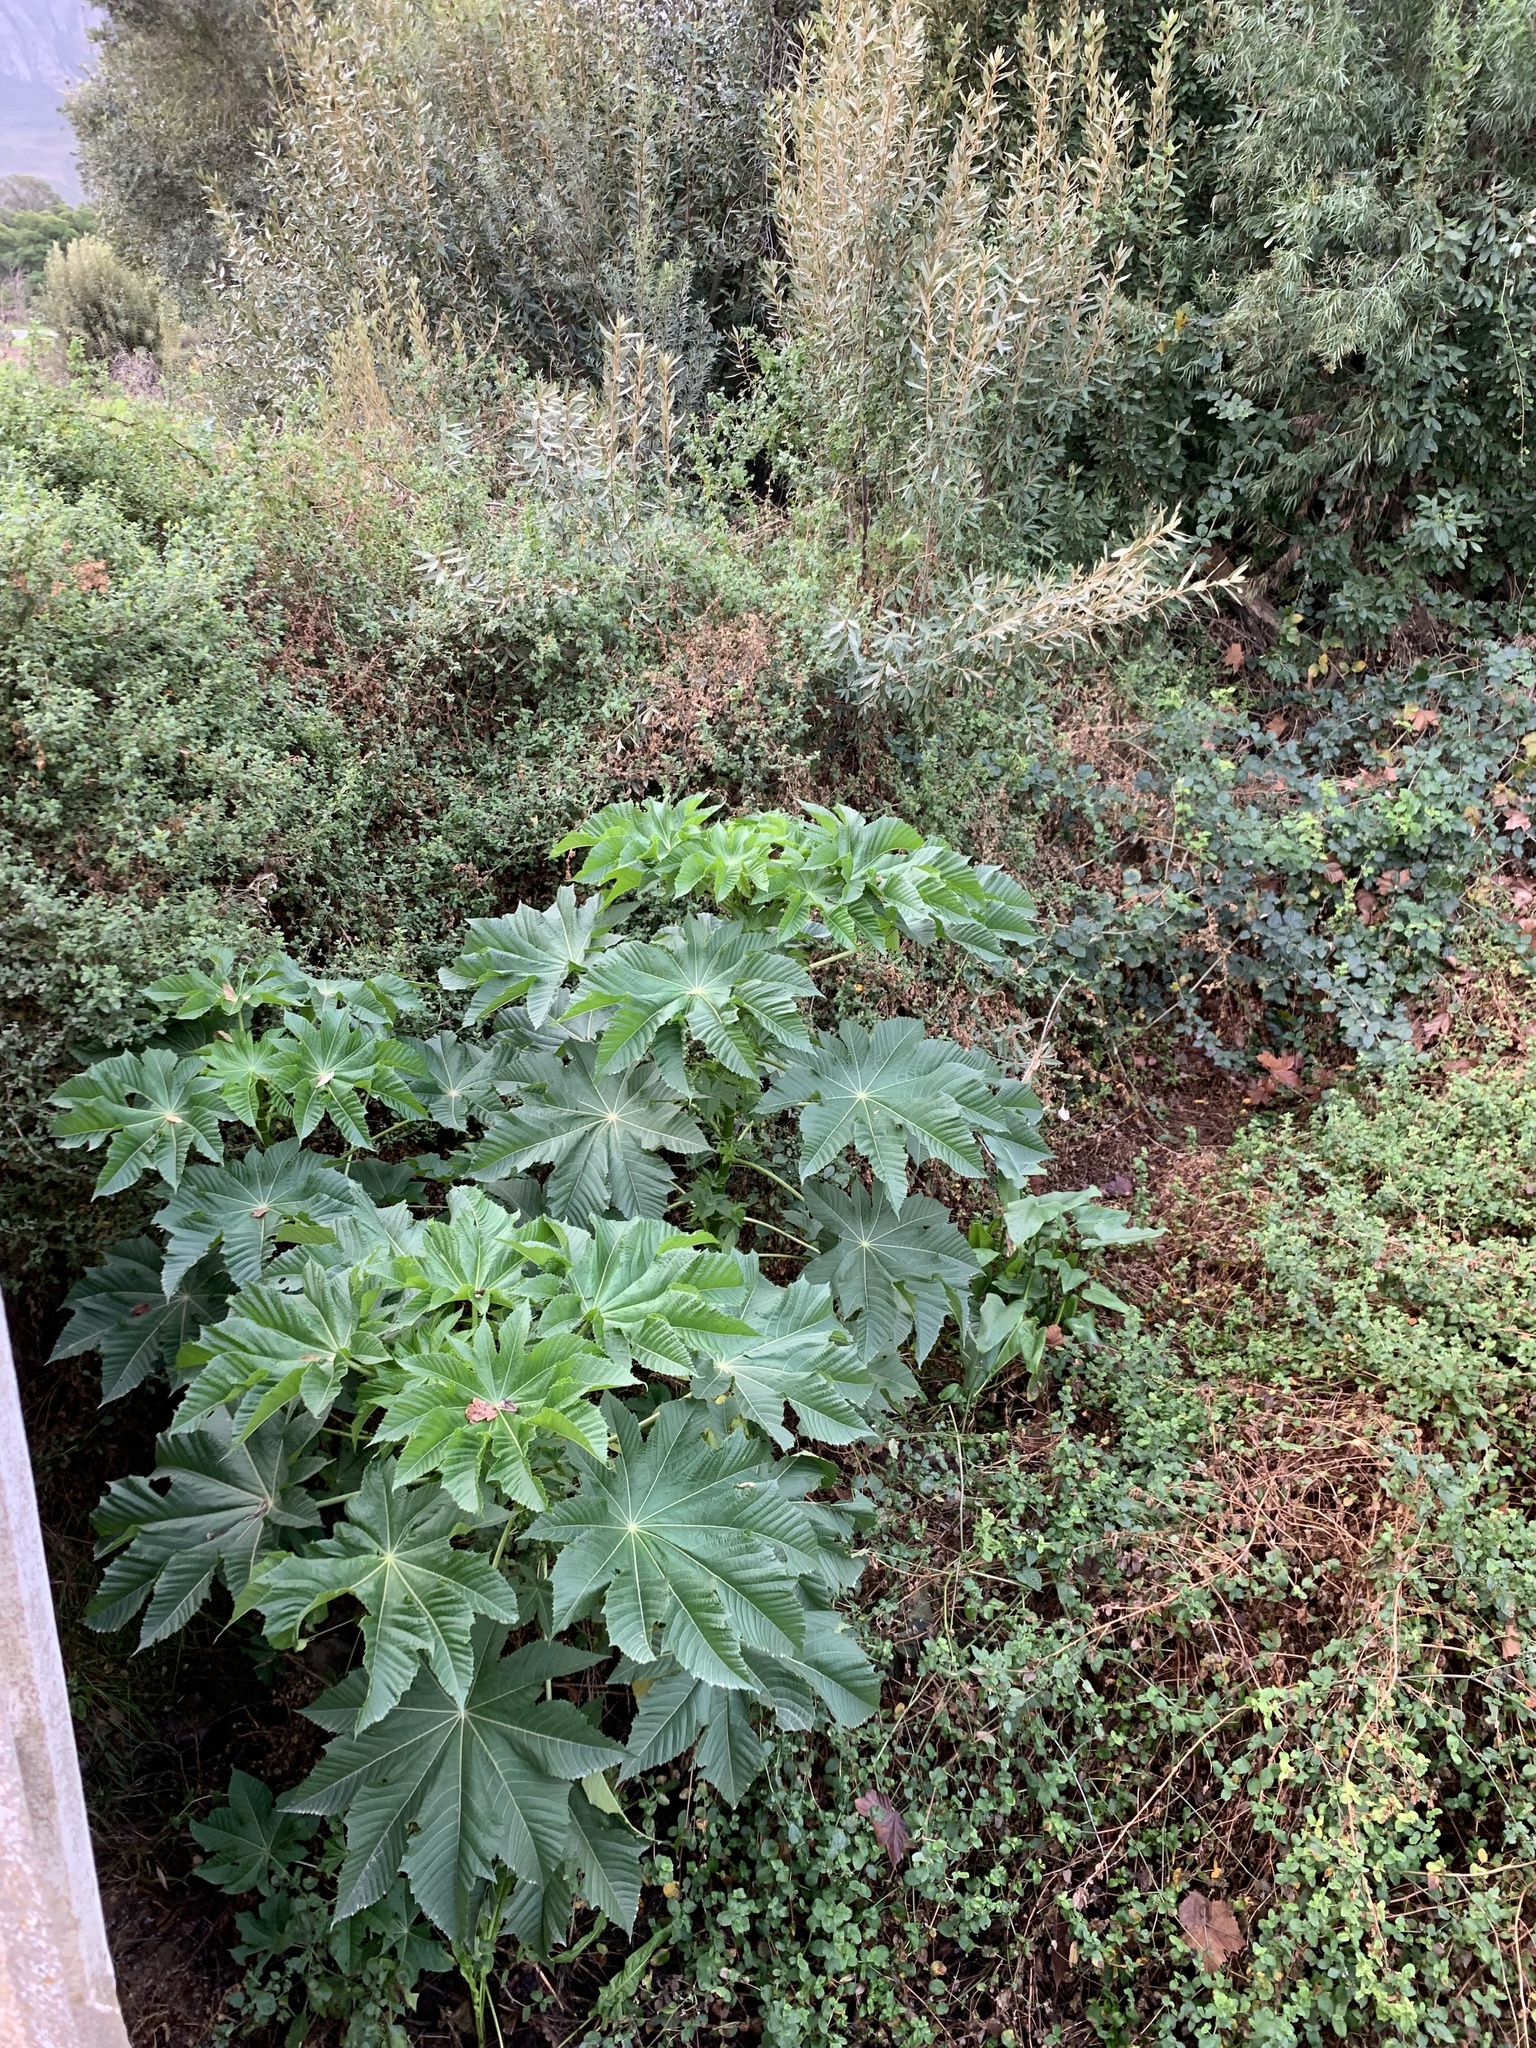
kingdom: Plantae
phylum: Tracheophyta
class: Magnoliopsida
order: Malpighiales
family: Euphorbiaceae
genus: Ricinus
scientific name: Ricinus communis
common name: Castor-oil-plant
